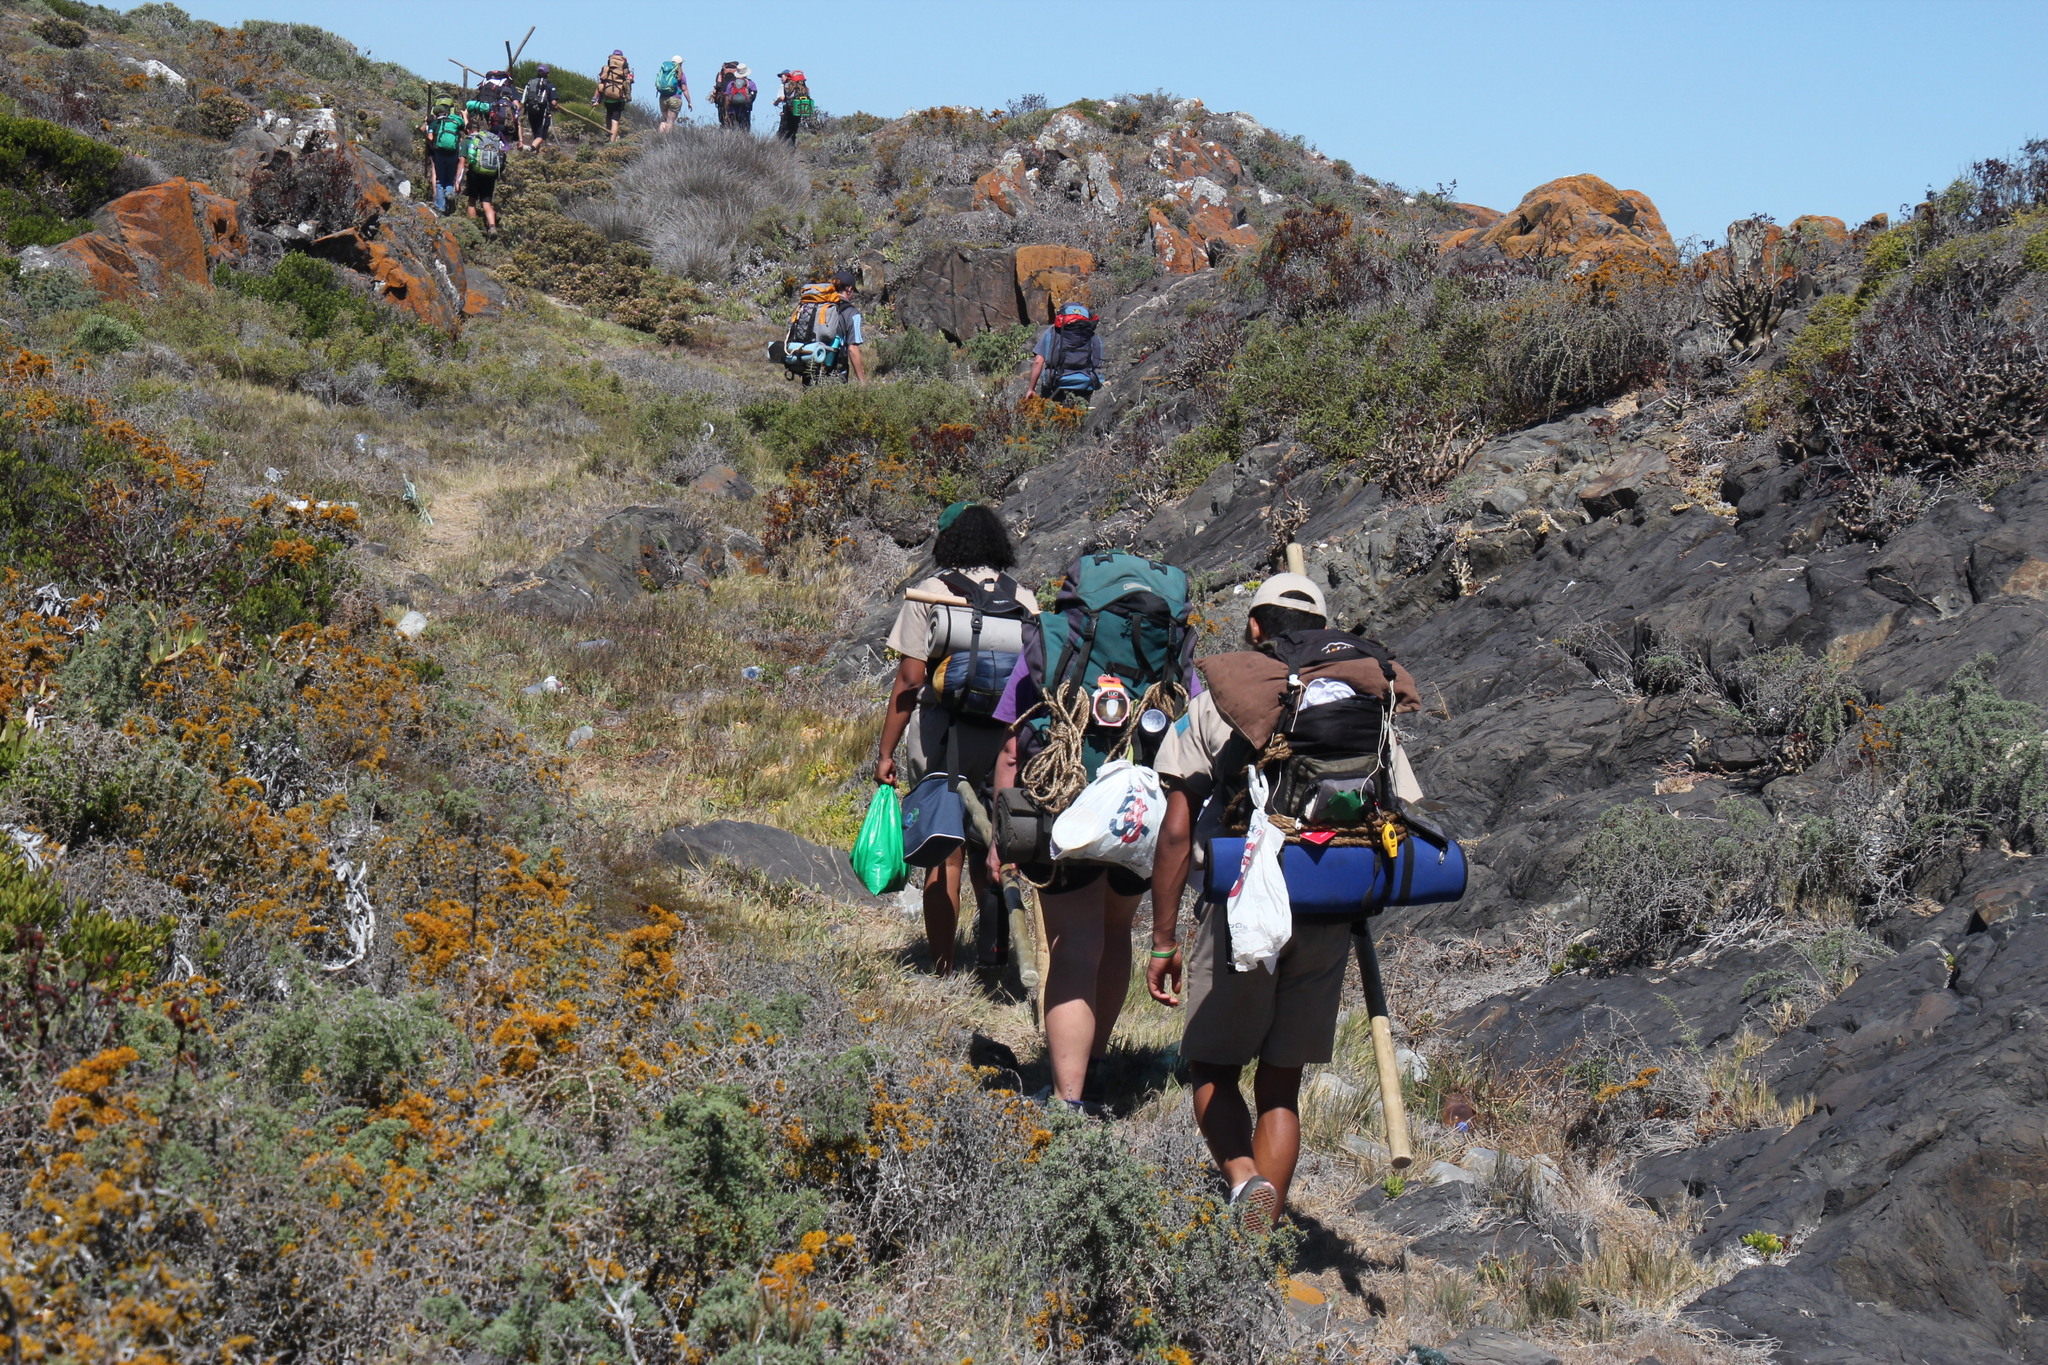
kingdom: Fungi
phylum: Ascomycota
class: Lecanoromycetes
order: Teloschistales
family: Teloschistaceae
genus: Dufourea
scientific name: Dufourea flammea
